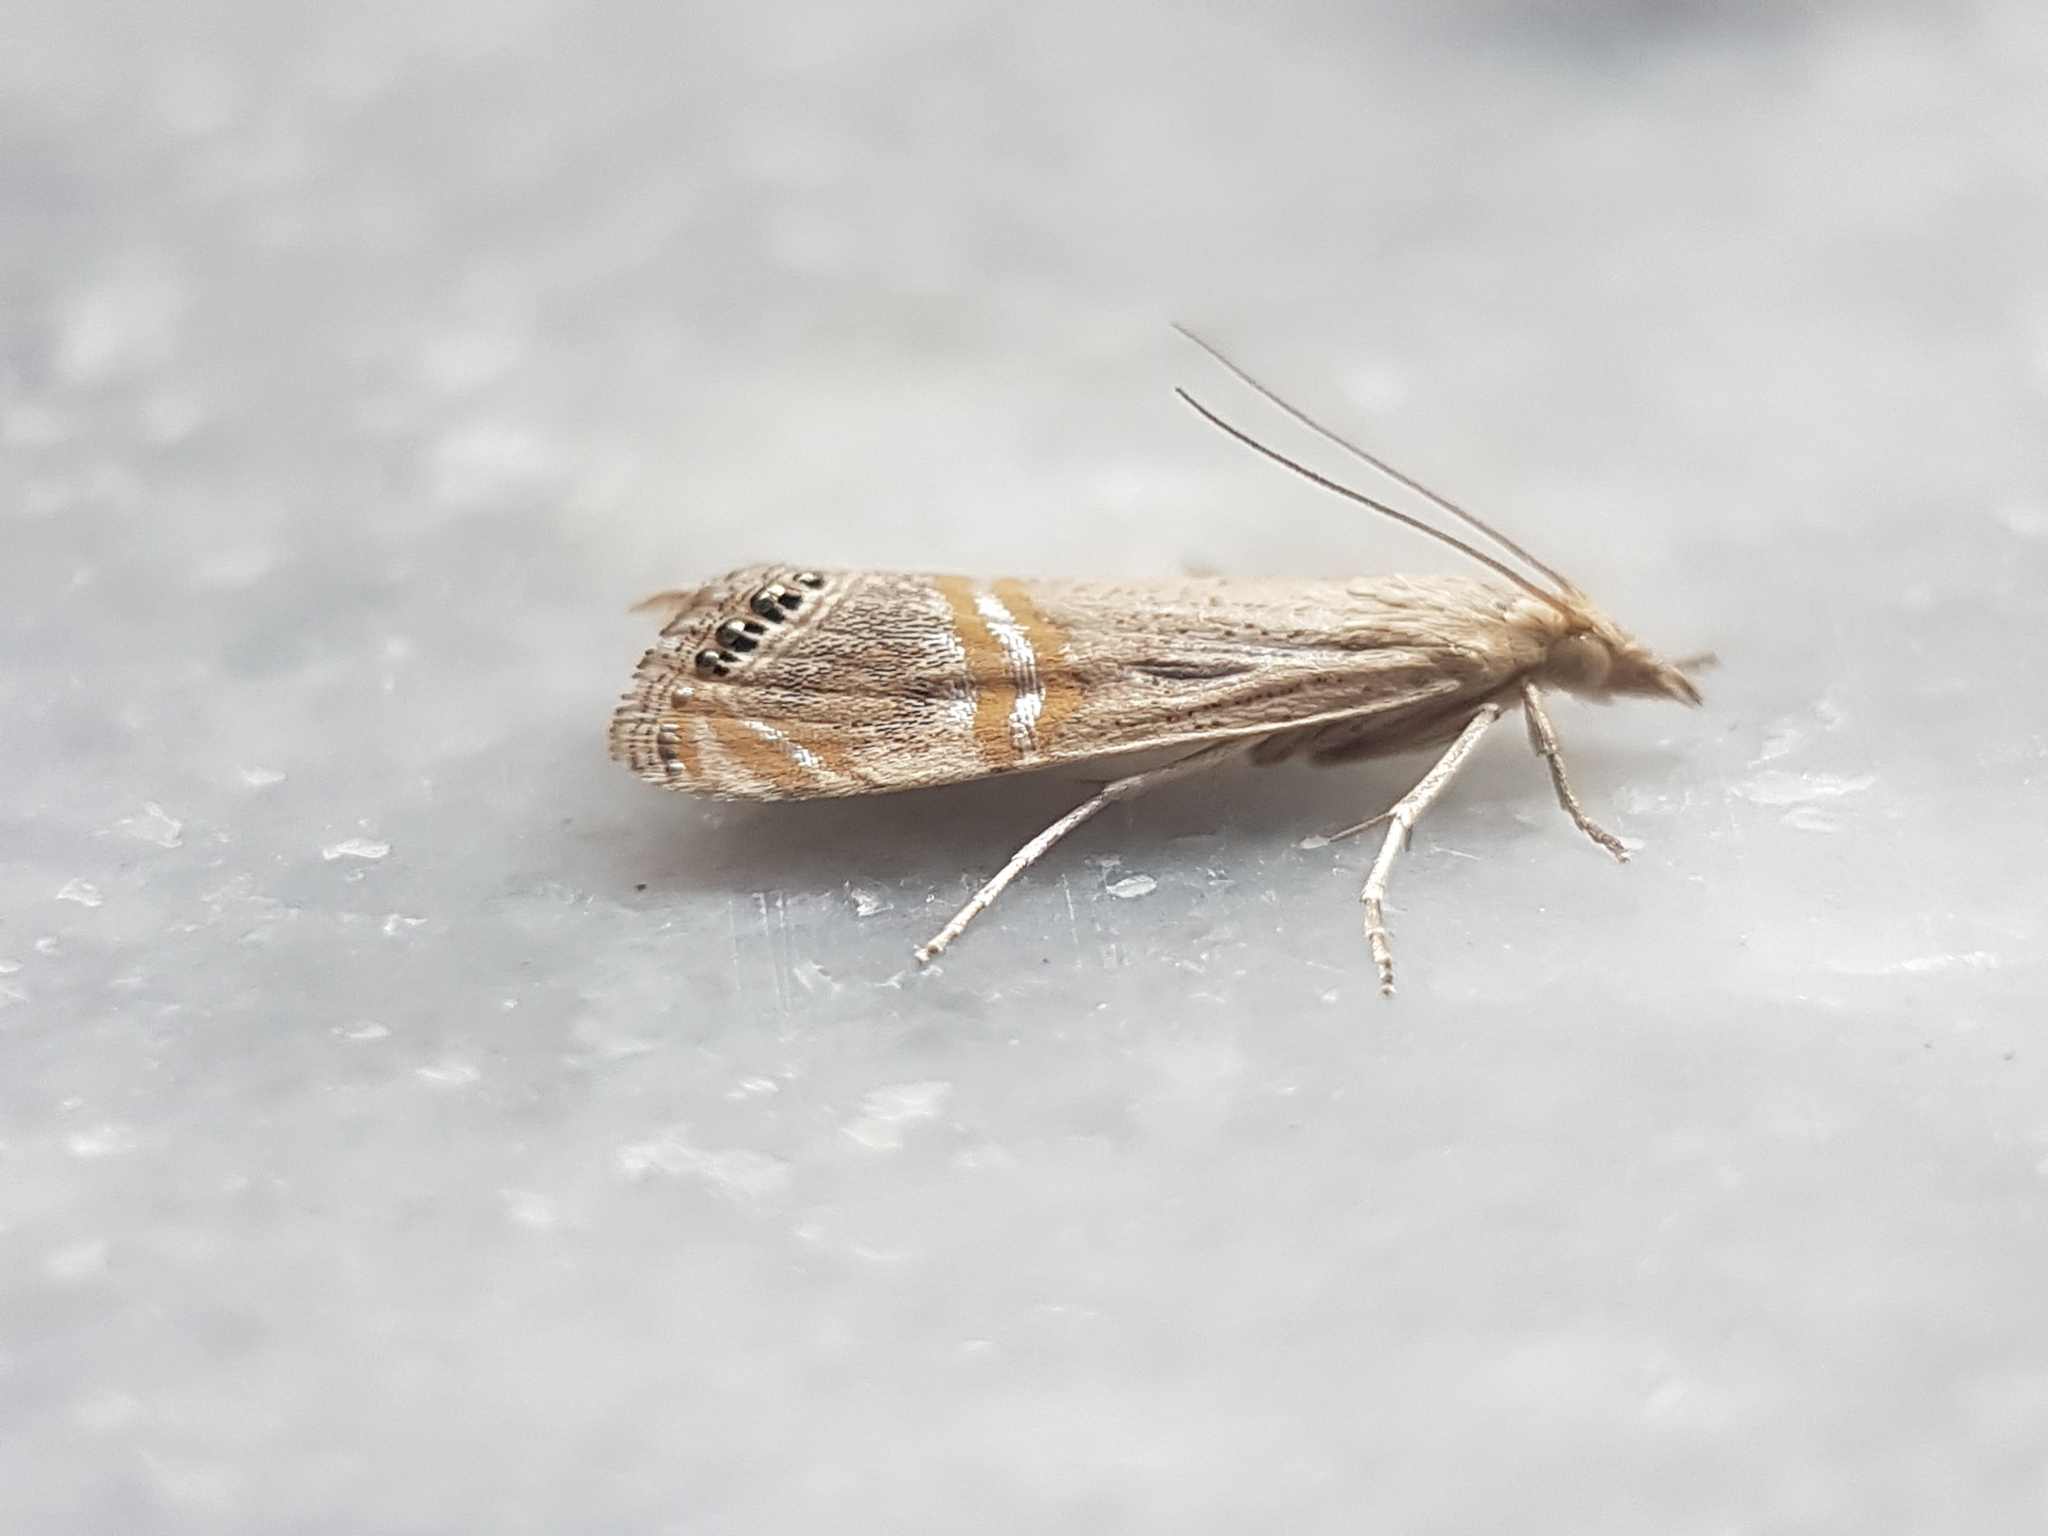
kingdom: Animalia
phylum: Arthropoda
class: Insecta
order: Lepidoptera
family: Crambidae
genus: Euchromius
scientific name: Euchromius ocellea
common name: Necklace veneer moth
